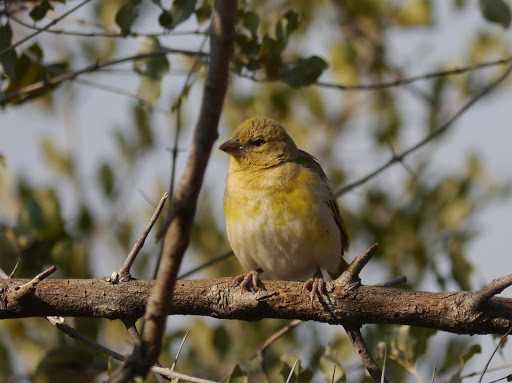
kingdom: Animalia
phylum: Chordata
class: Aves
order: Passeriformes
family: Ploceidae
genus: Ploceus
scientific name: Ploceus velatus
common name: Southern masked weaver
